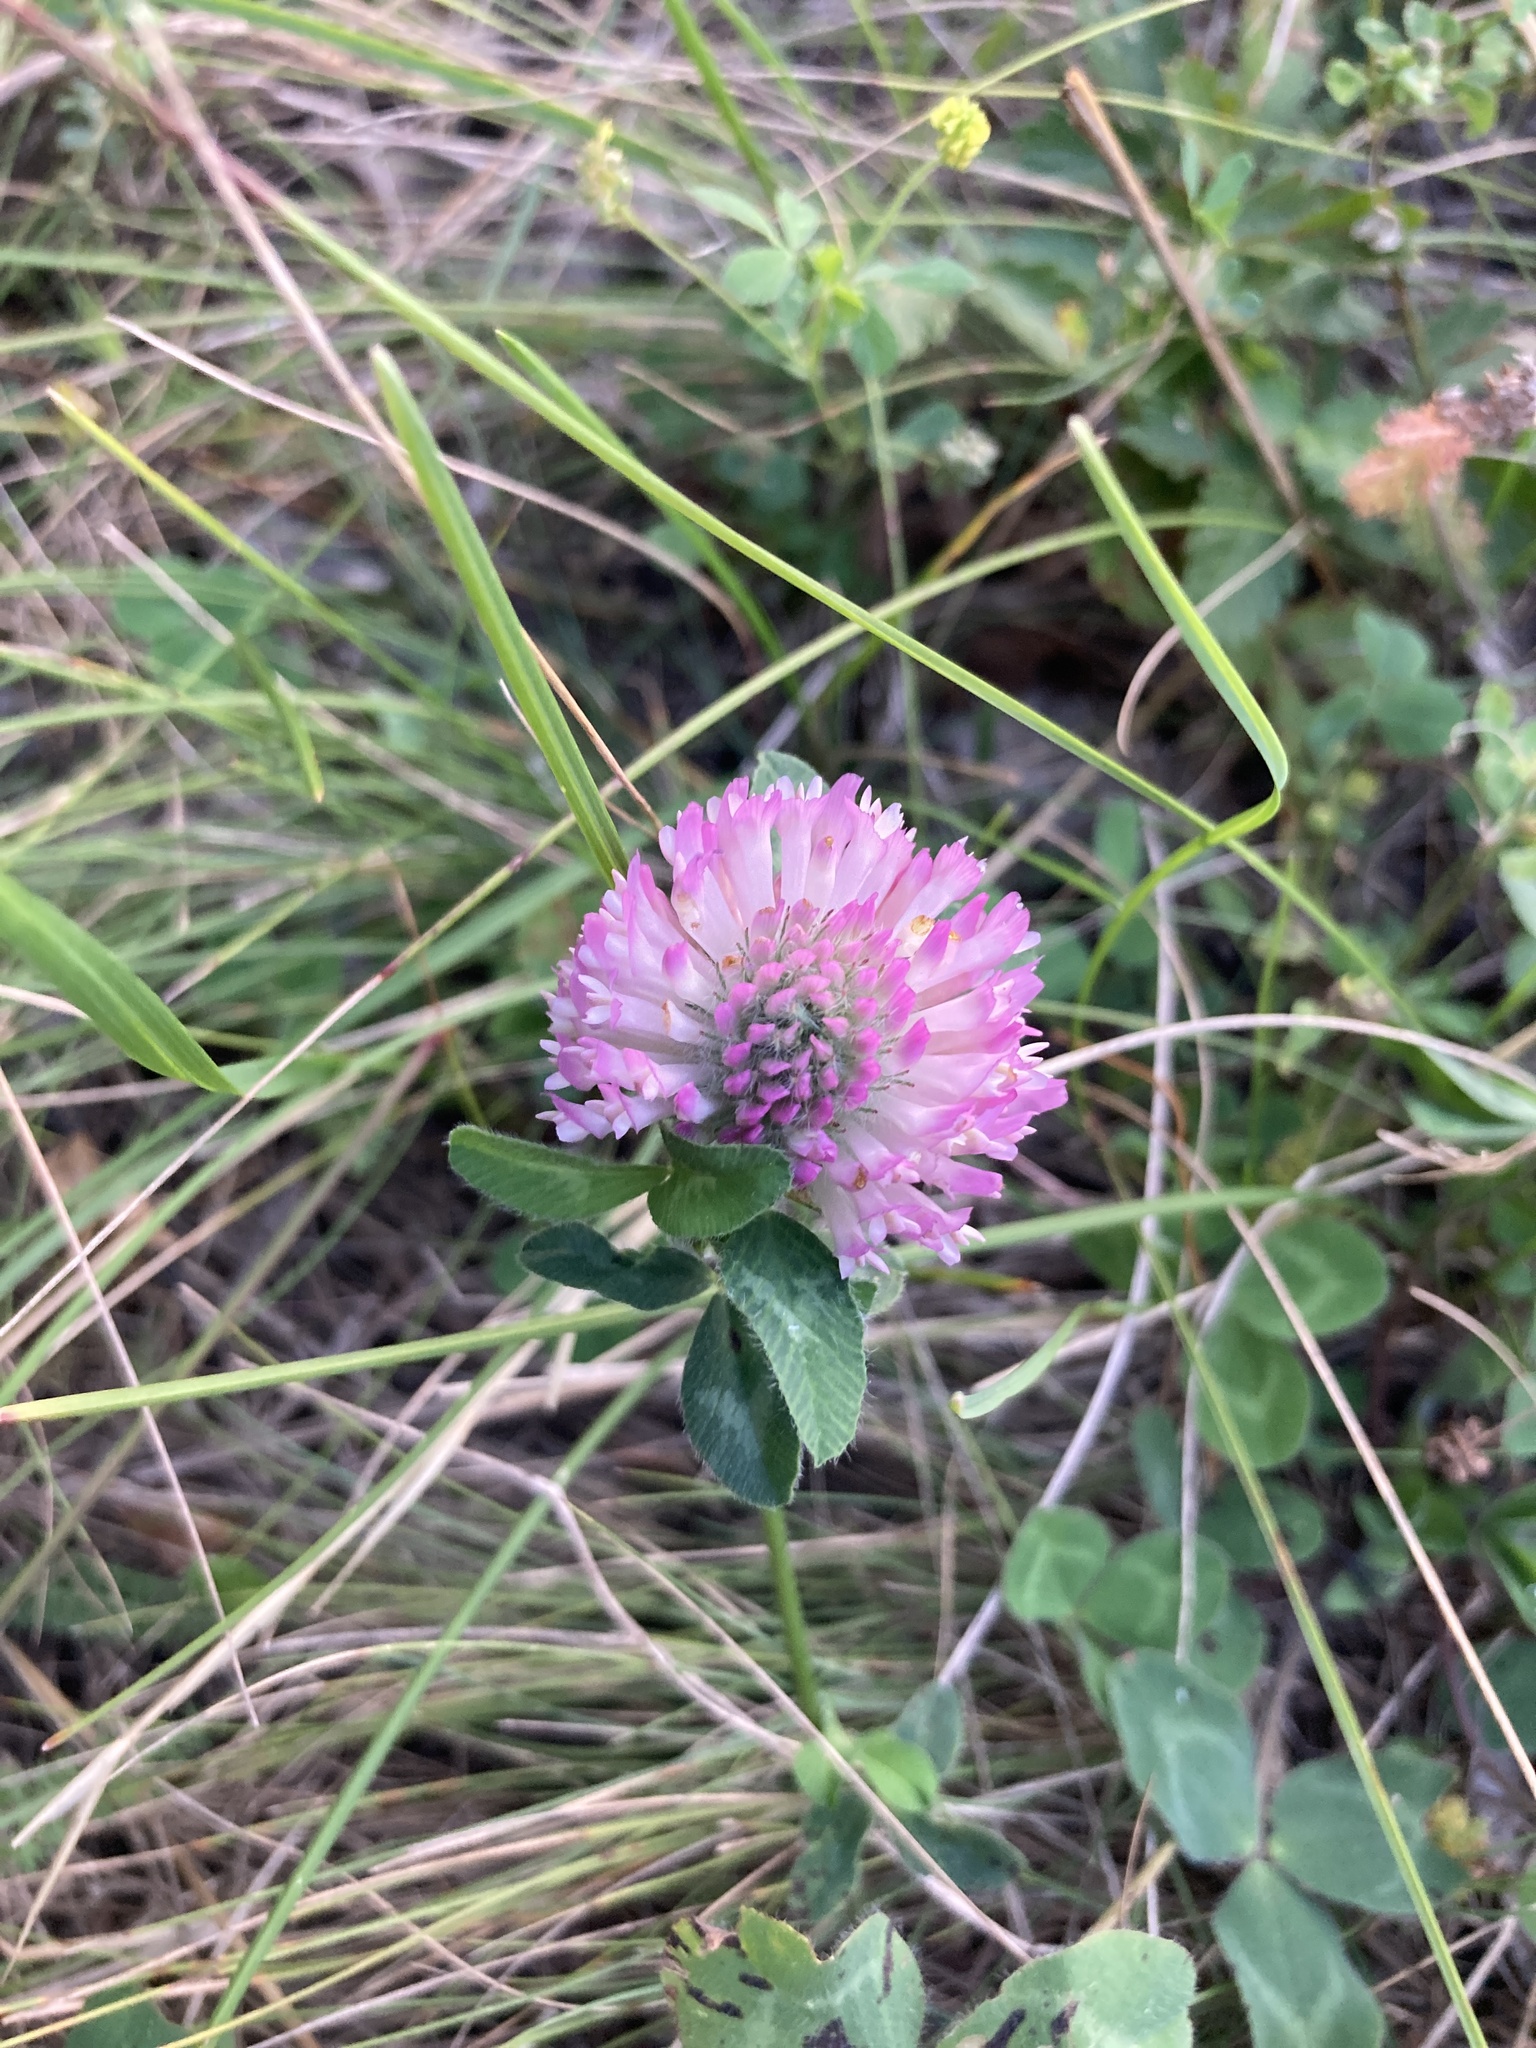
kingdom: Plantae
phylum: Tracheophyta
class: Magnoliopsida
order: Fabales
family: Fabaceae
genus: Trifolium
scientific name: Trifolium pratense
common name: Red clover
